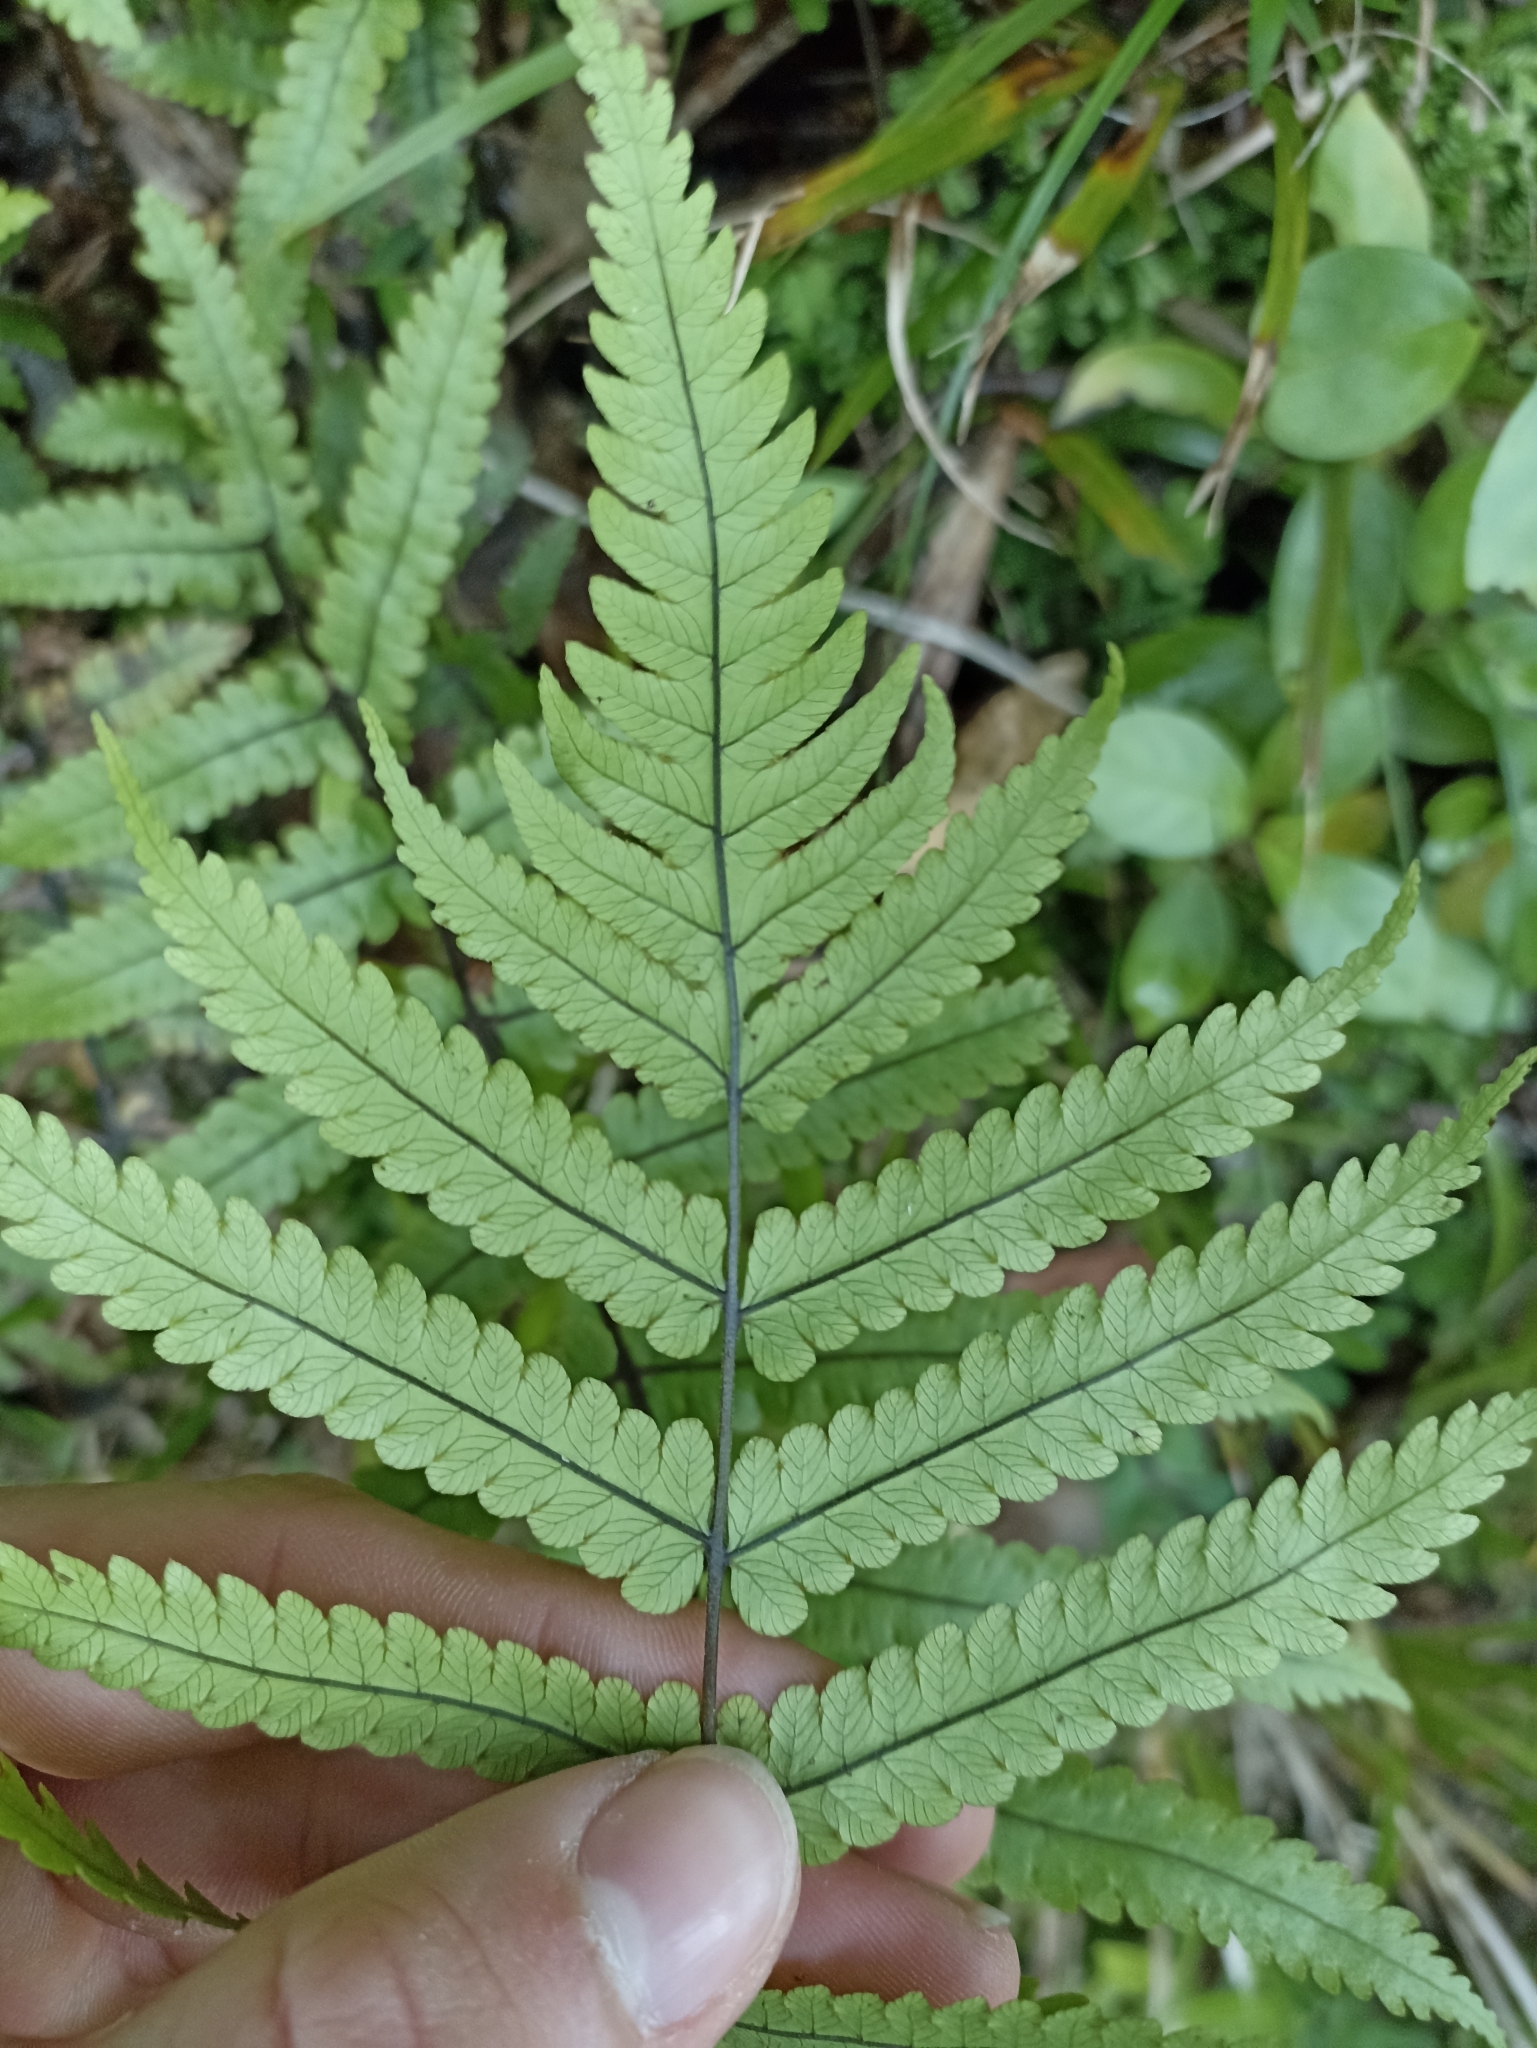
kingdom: Plantae
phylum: Tracheophyta
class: Polypodiopsida
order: Polypodiales
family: Thelypteridaceae
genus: Pakau
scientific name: Pakau pennigera
